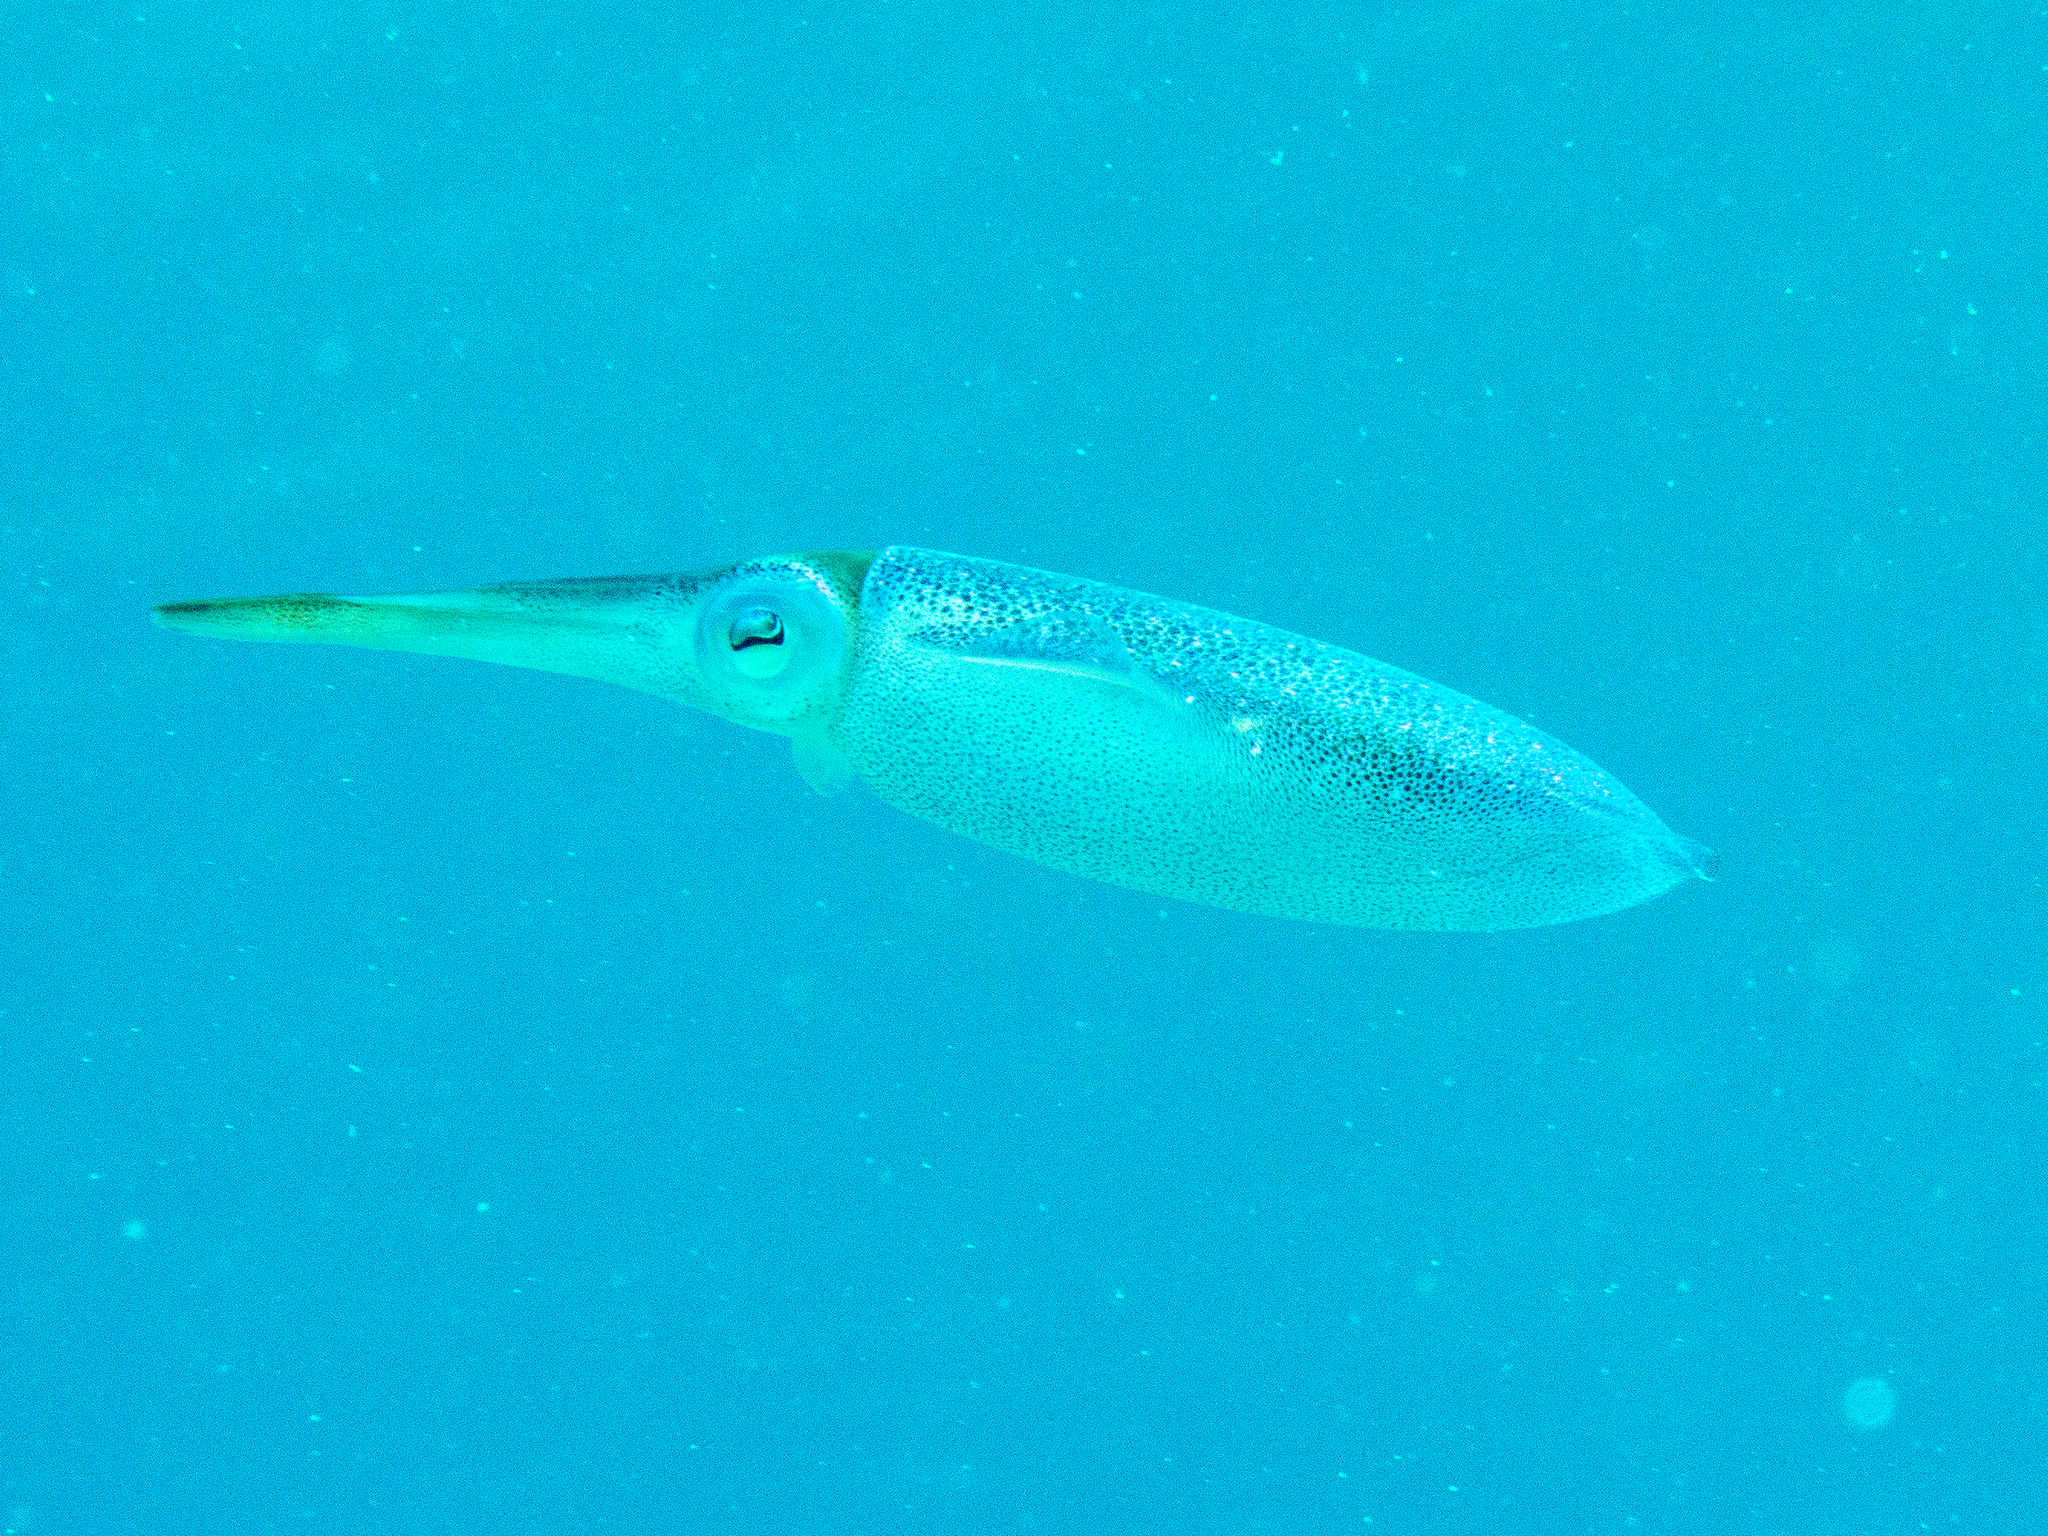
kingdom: Animalia
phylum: Mollusca
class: Cephalopoda
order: Myopsida
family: Loliginidae
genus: Sepioteuthis
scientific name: Sepioteuthis sepioidea
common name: Caribbean reef squid
